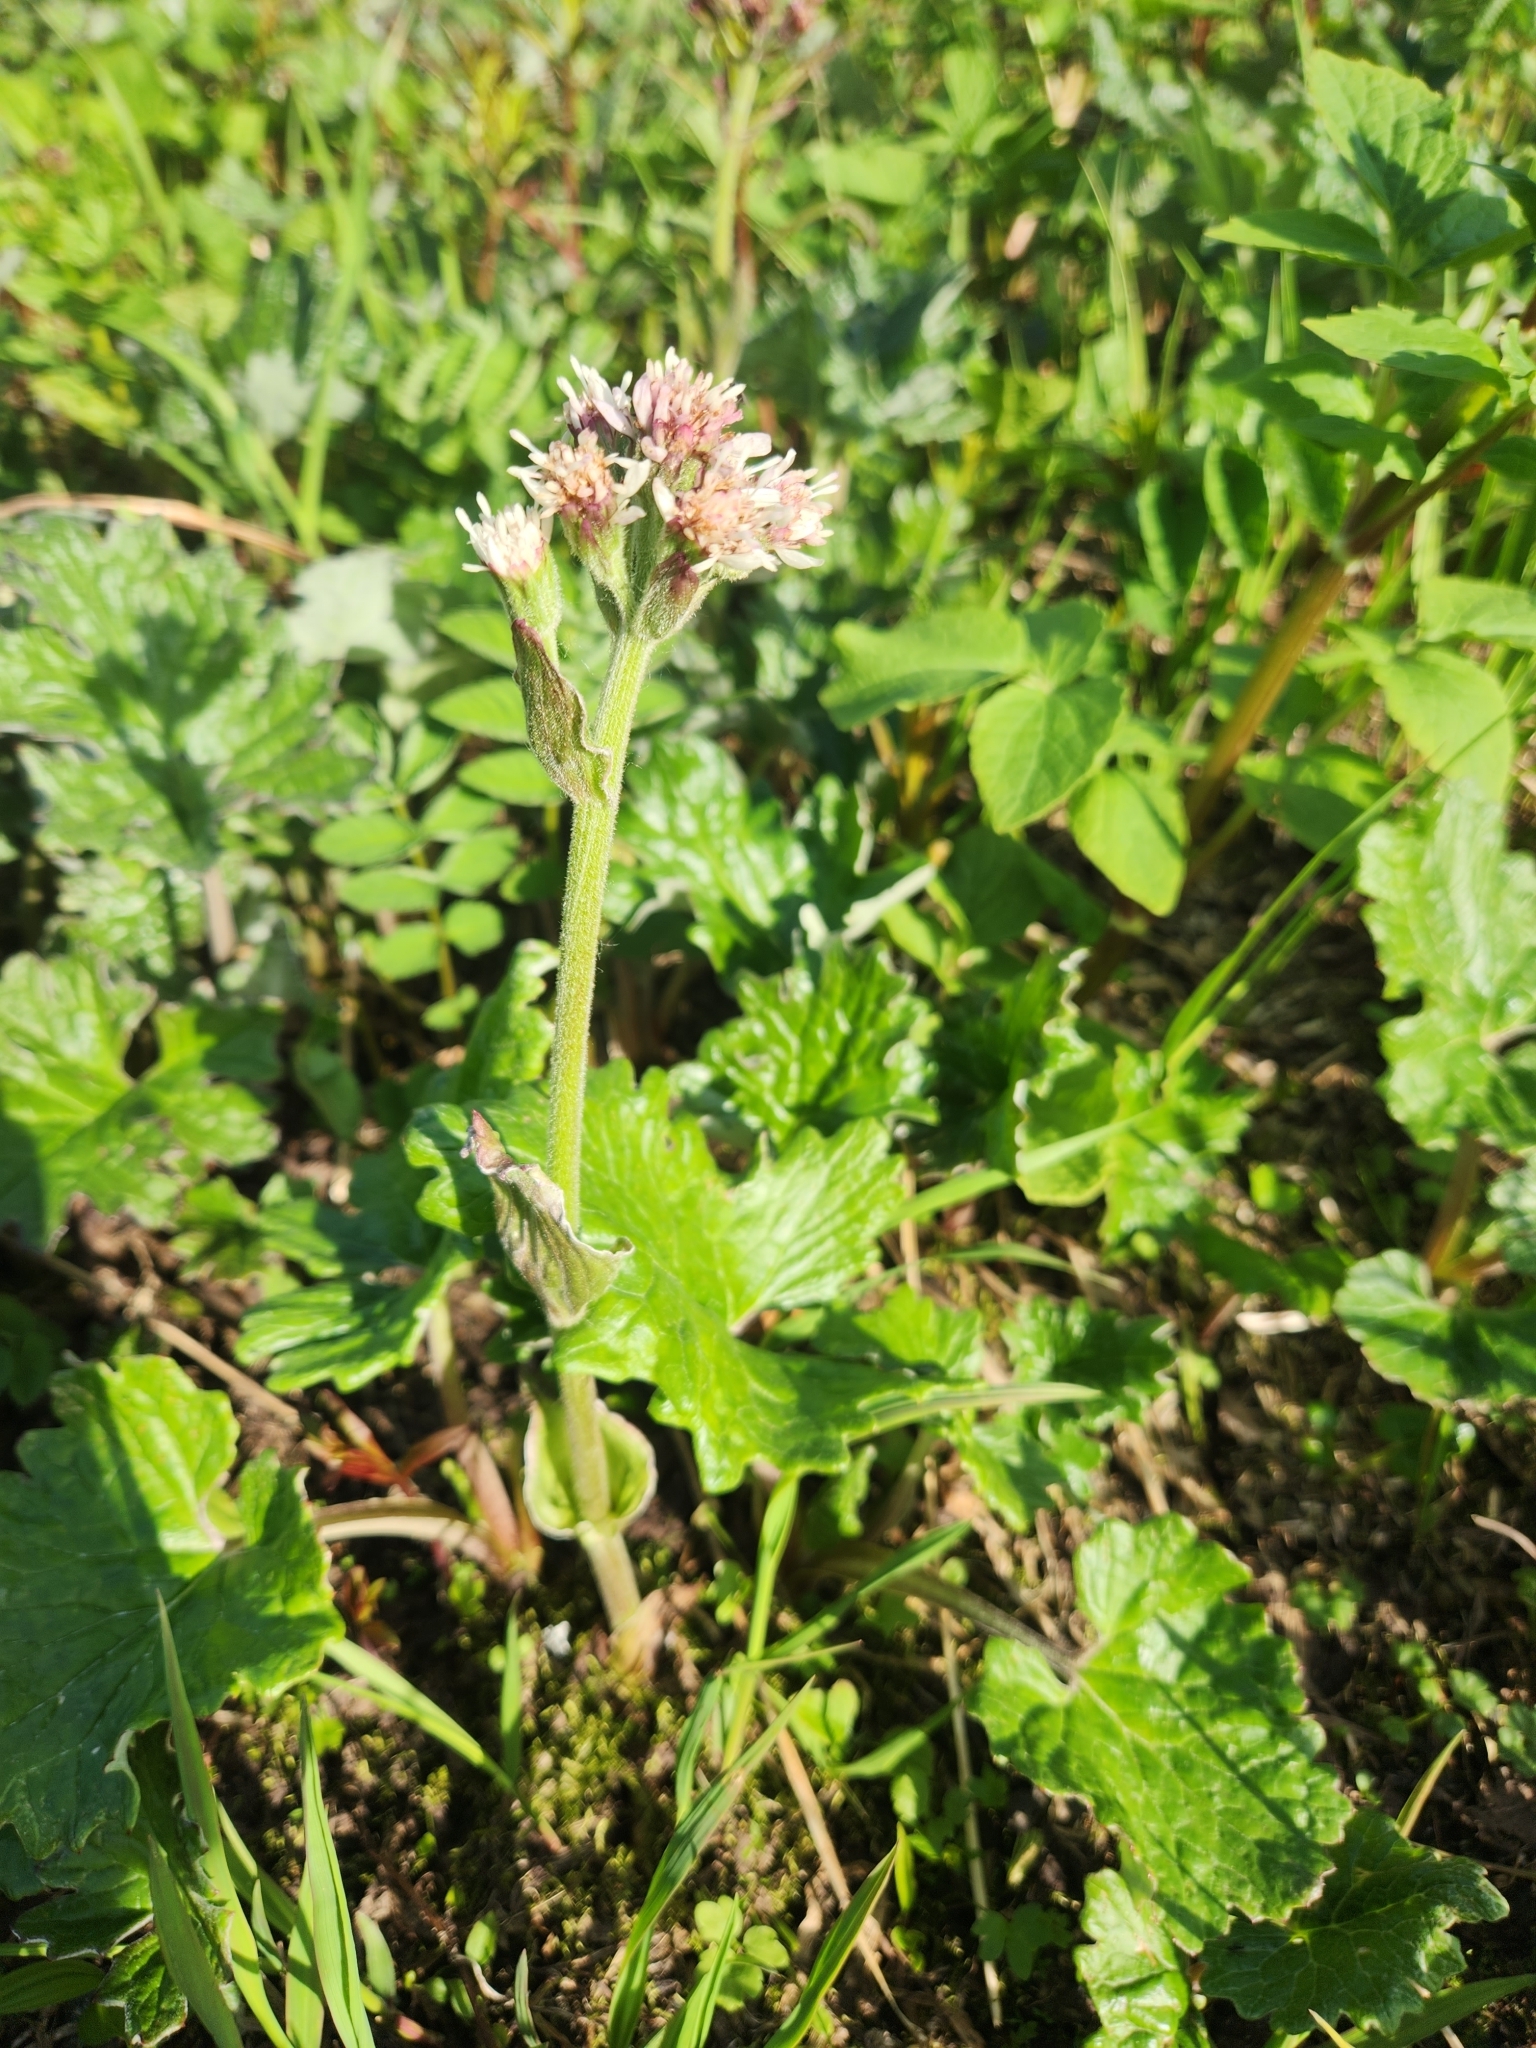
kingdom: Plantae
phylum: Tracheophyta
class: Magnoliopsida
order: Asterales
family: Asteraceae
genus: Petasites
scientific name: Petasites frigidus
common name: Arctic butterbur
